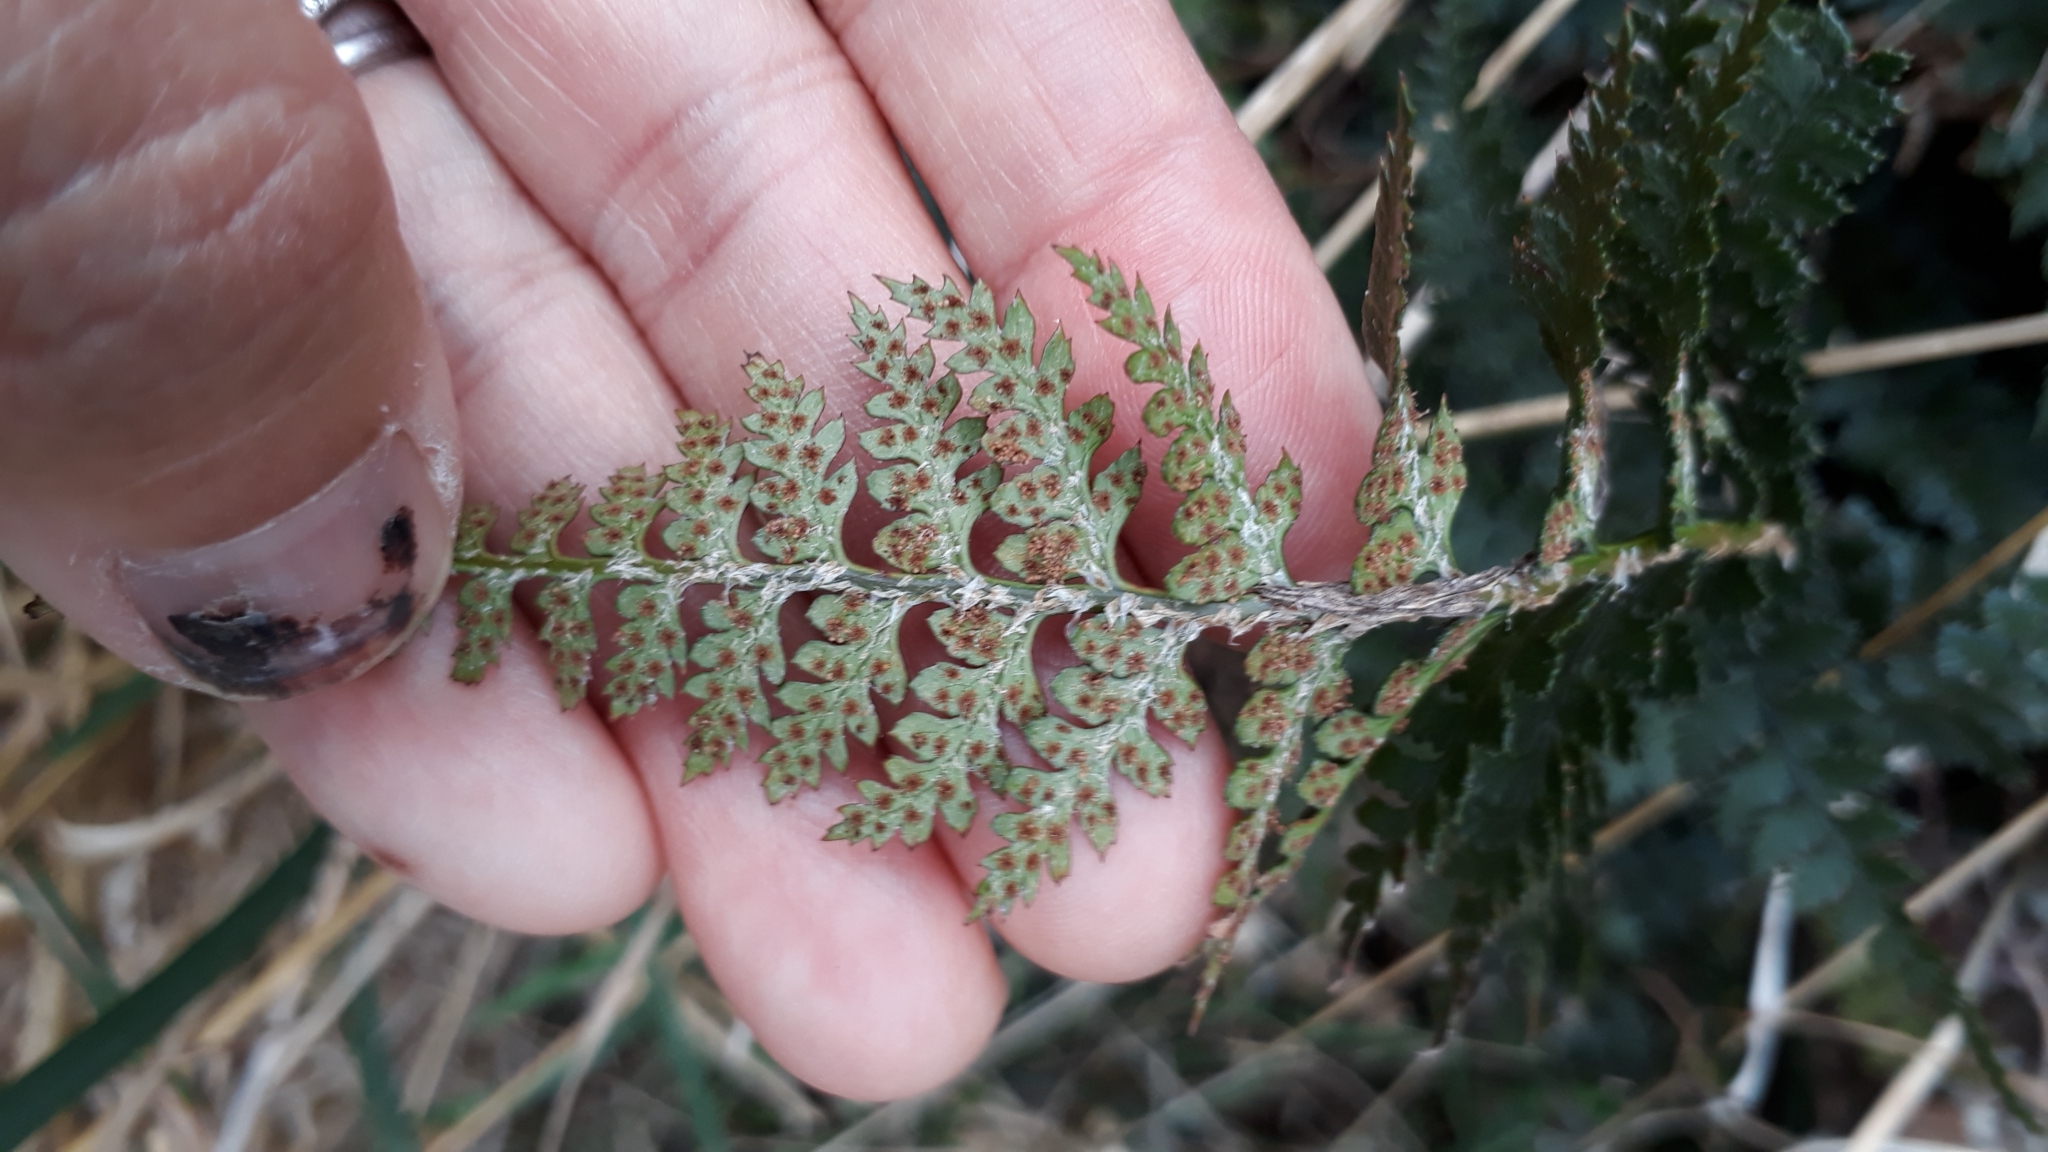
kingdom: Plantae
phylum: Tracheophyta
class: Polypodiopsida
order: Polypodiales
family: Dryopteridaceae
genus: Polystichum
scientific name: Polystichum oculatum
